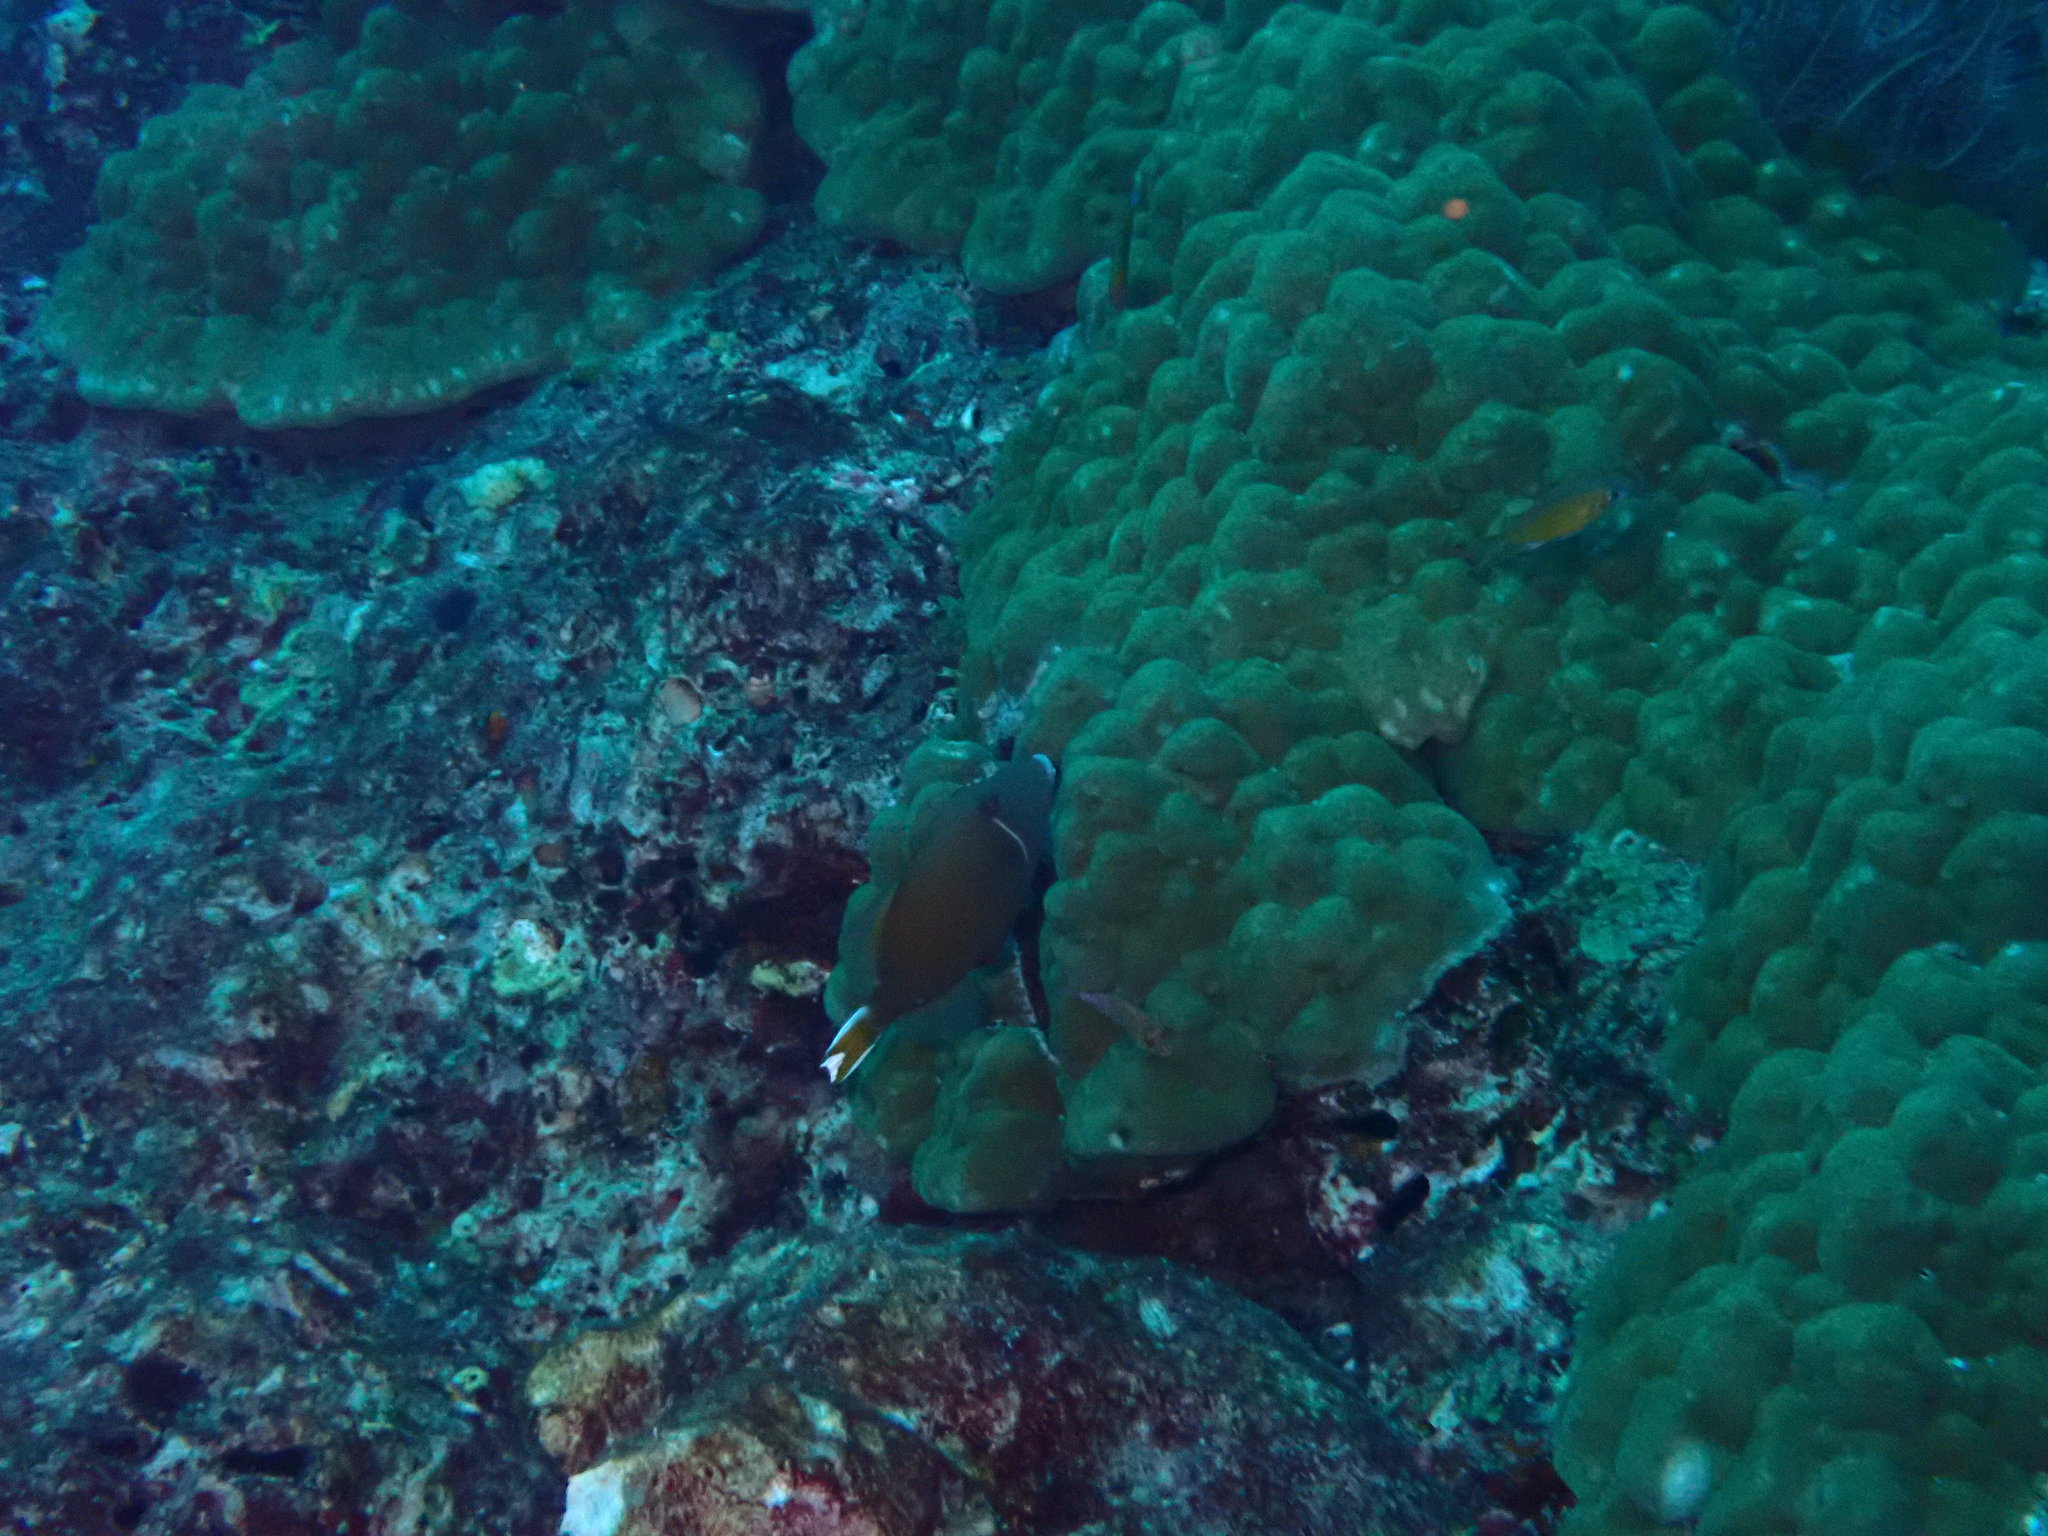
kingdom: Animalia
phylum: Chordata
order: Tetraodontiformes
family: Balistidae
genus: Sufflamen
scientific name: Sufflamen chrysopterum
